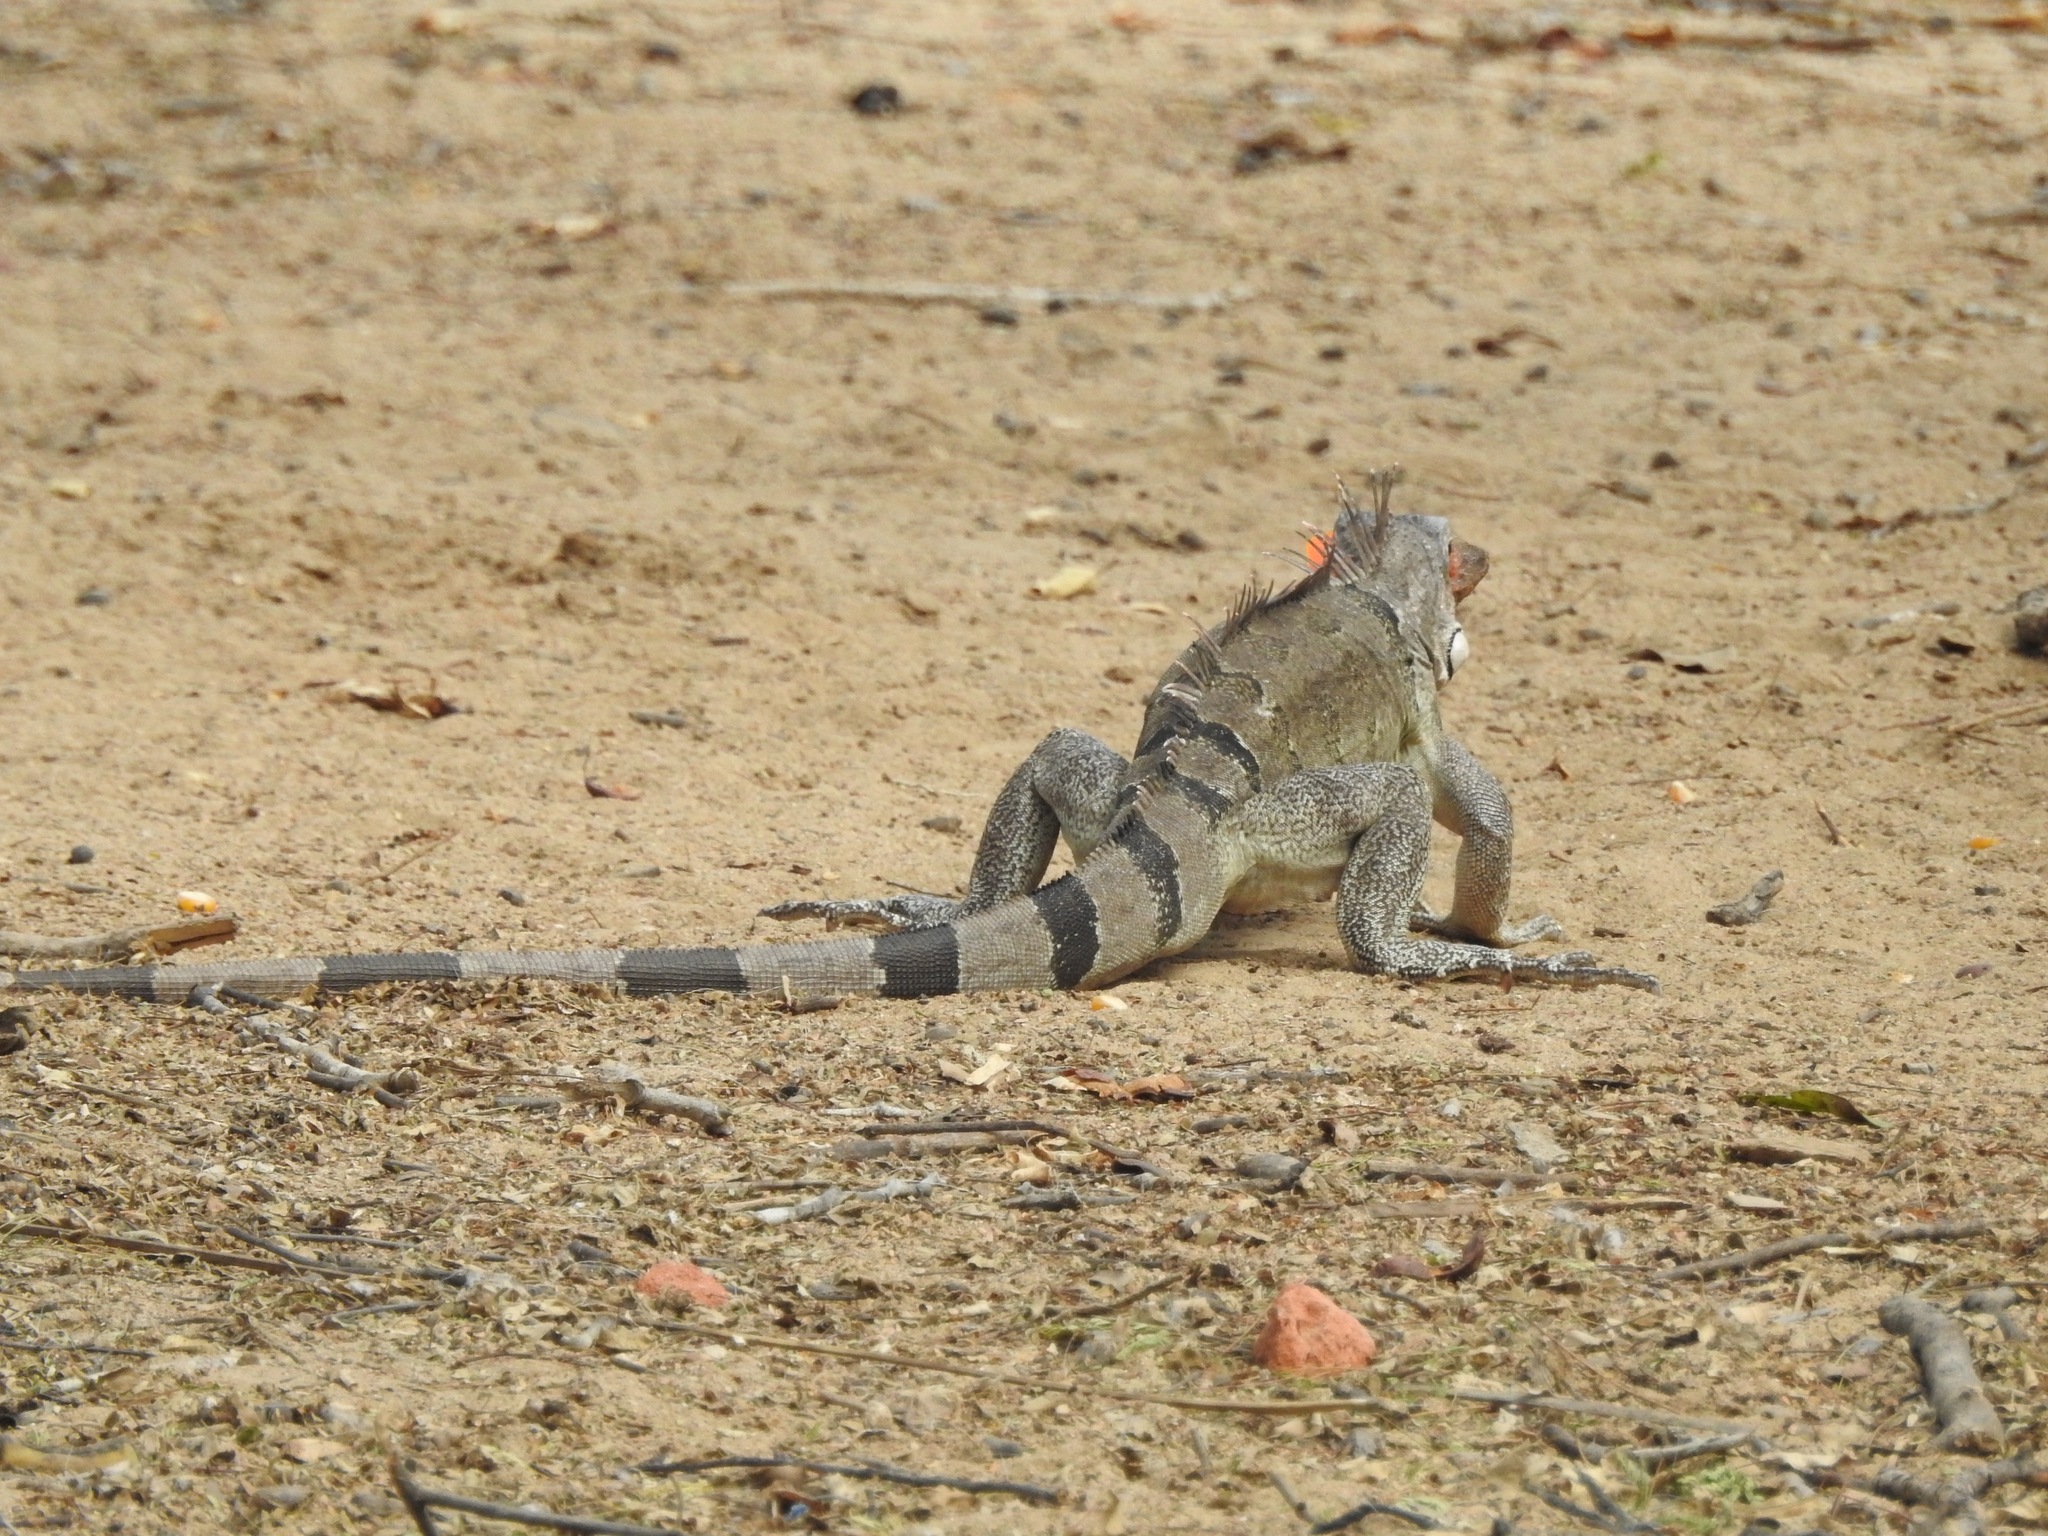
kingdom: Animalia
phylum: Chordata
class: Squamata
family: Iguanidae
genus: Iguana
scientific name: Iguana iguana
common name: Green iguana
